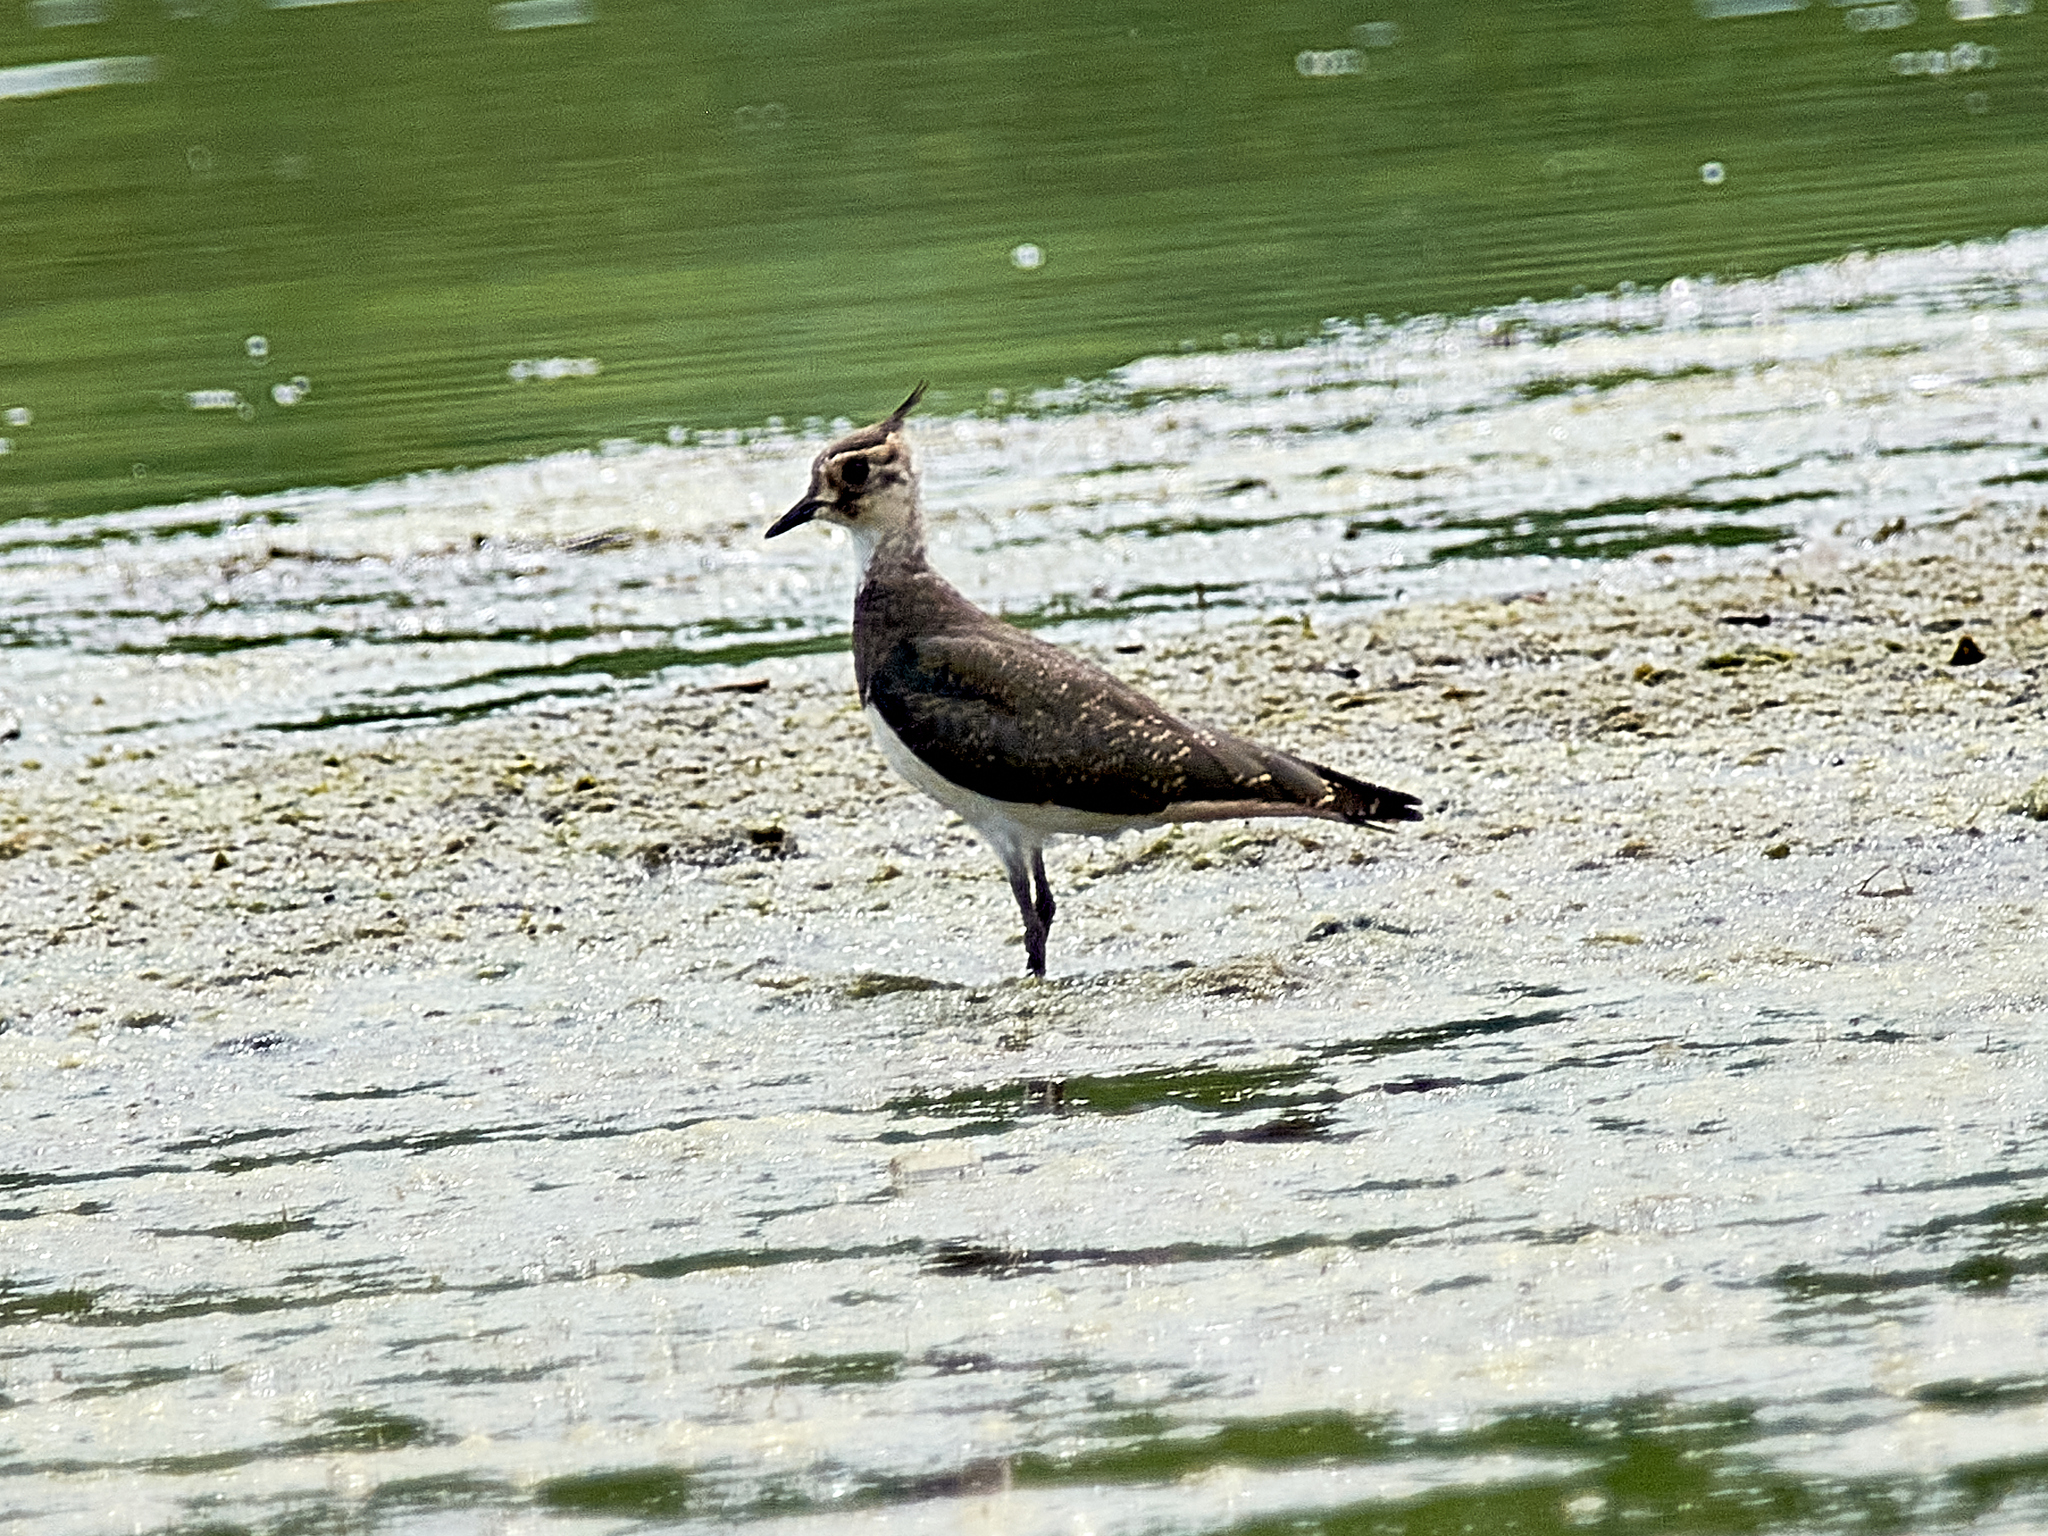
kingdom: Animalia
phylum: Chordata
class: Aves
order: Charadriiformes
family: Charadriidae
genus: Vanellus
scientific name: Vanellus vanellus
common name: Northern lapwing
